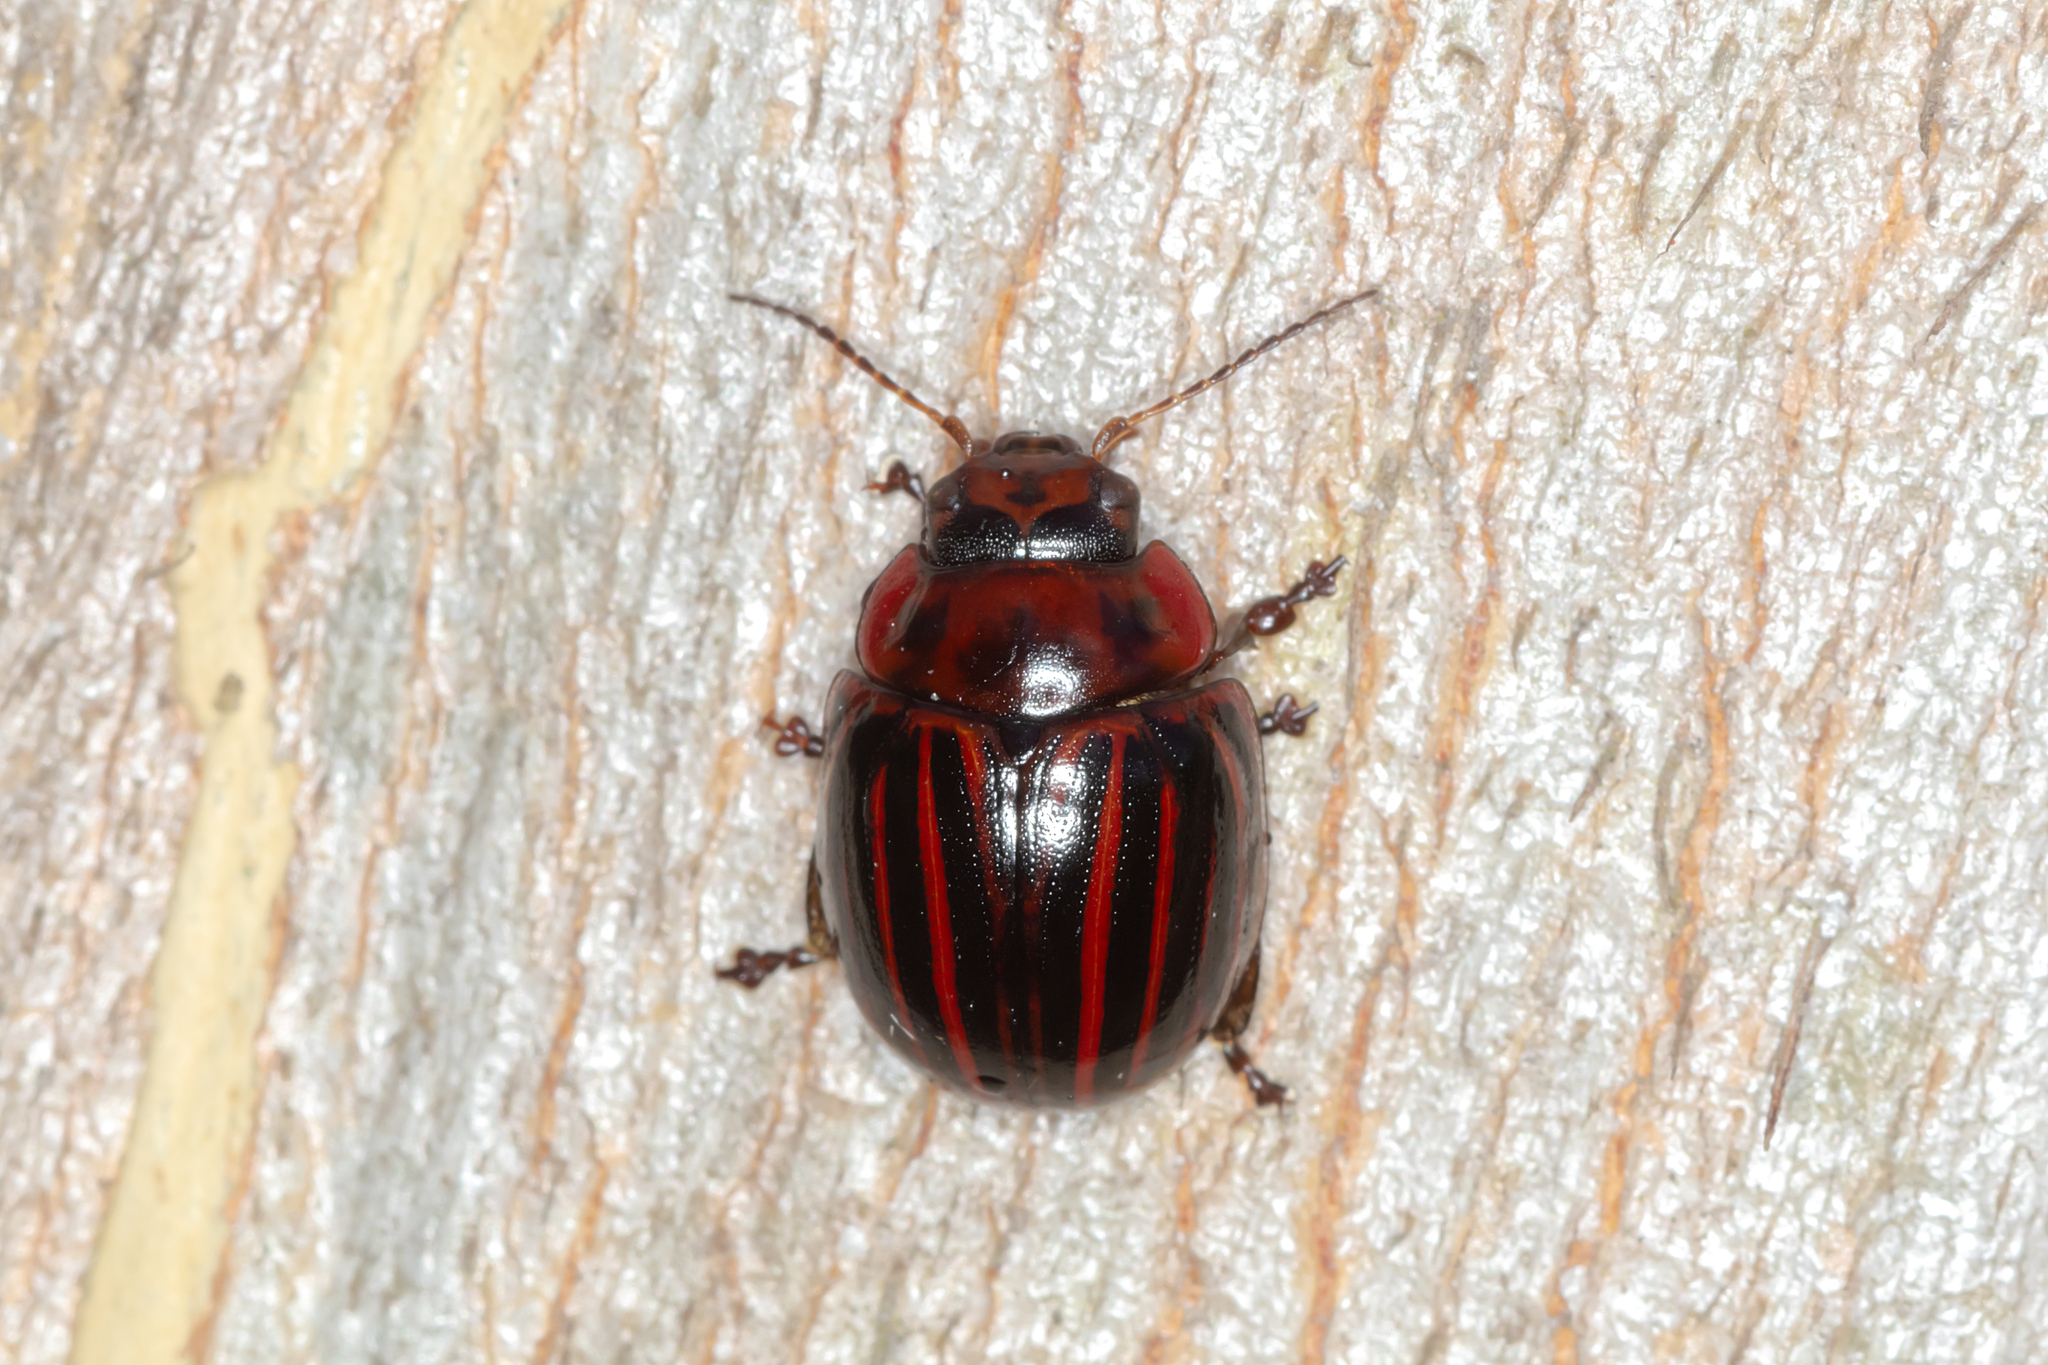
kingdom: Animalia
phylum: Arthropoda
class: Insecta
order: Coleoptera
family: Chrysomelidae
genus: Paropsisterna
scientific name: Paropsisterna
